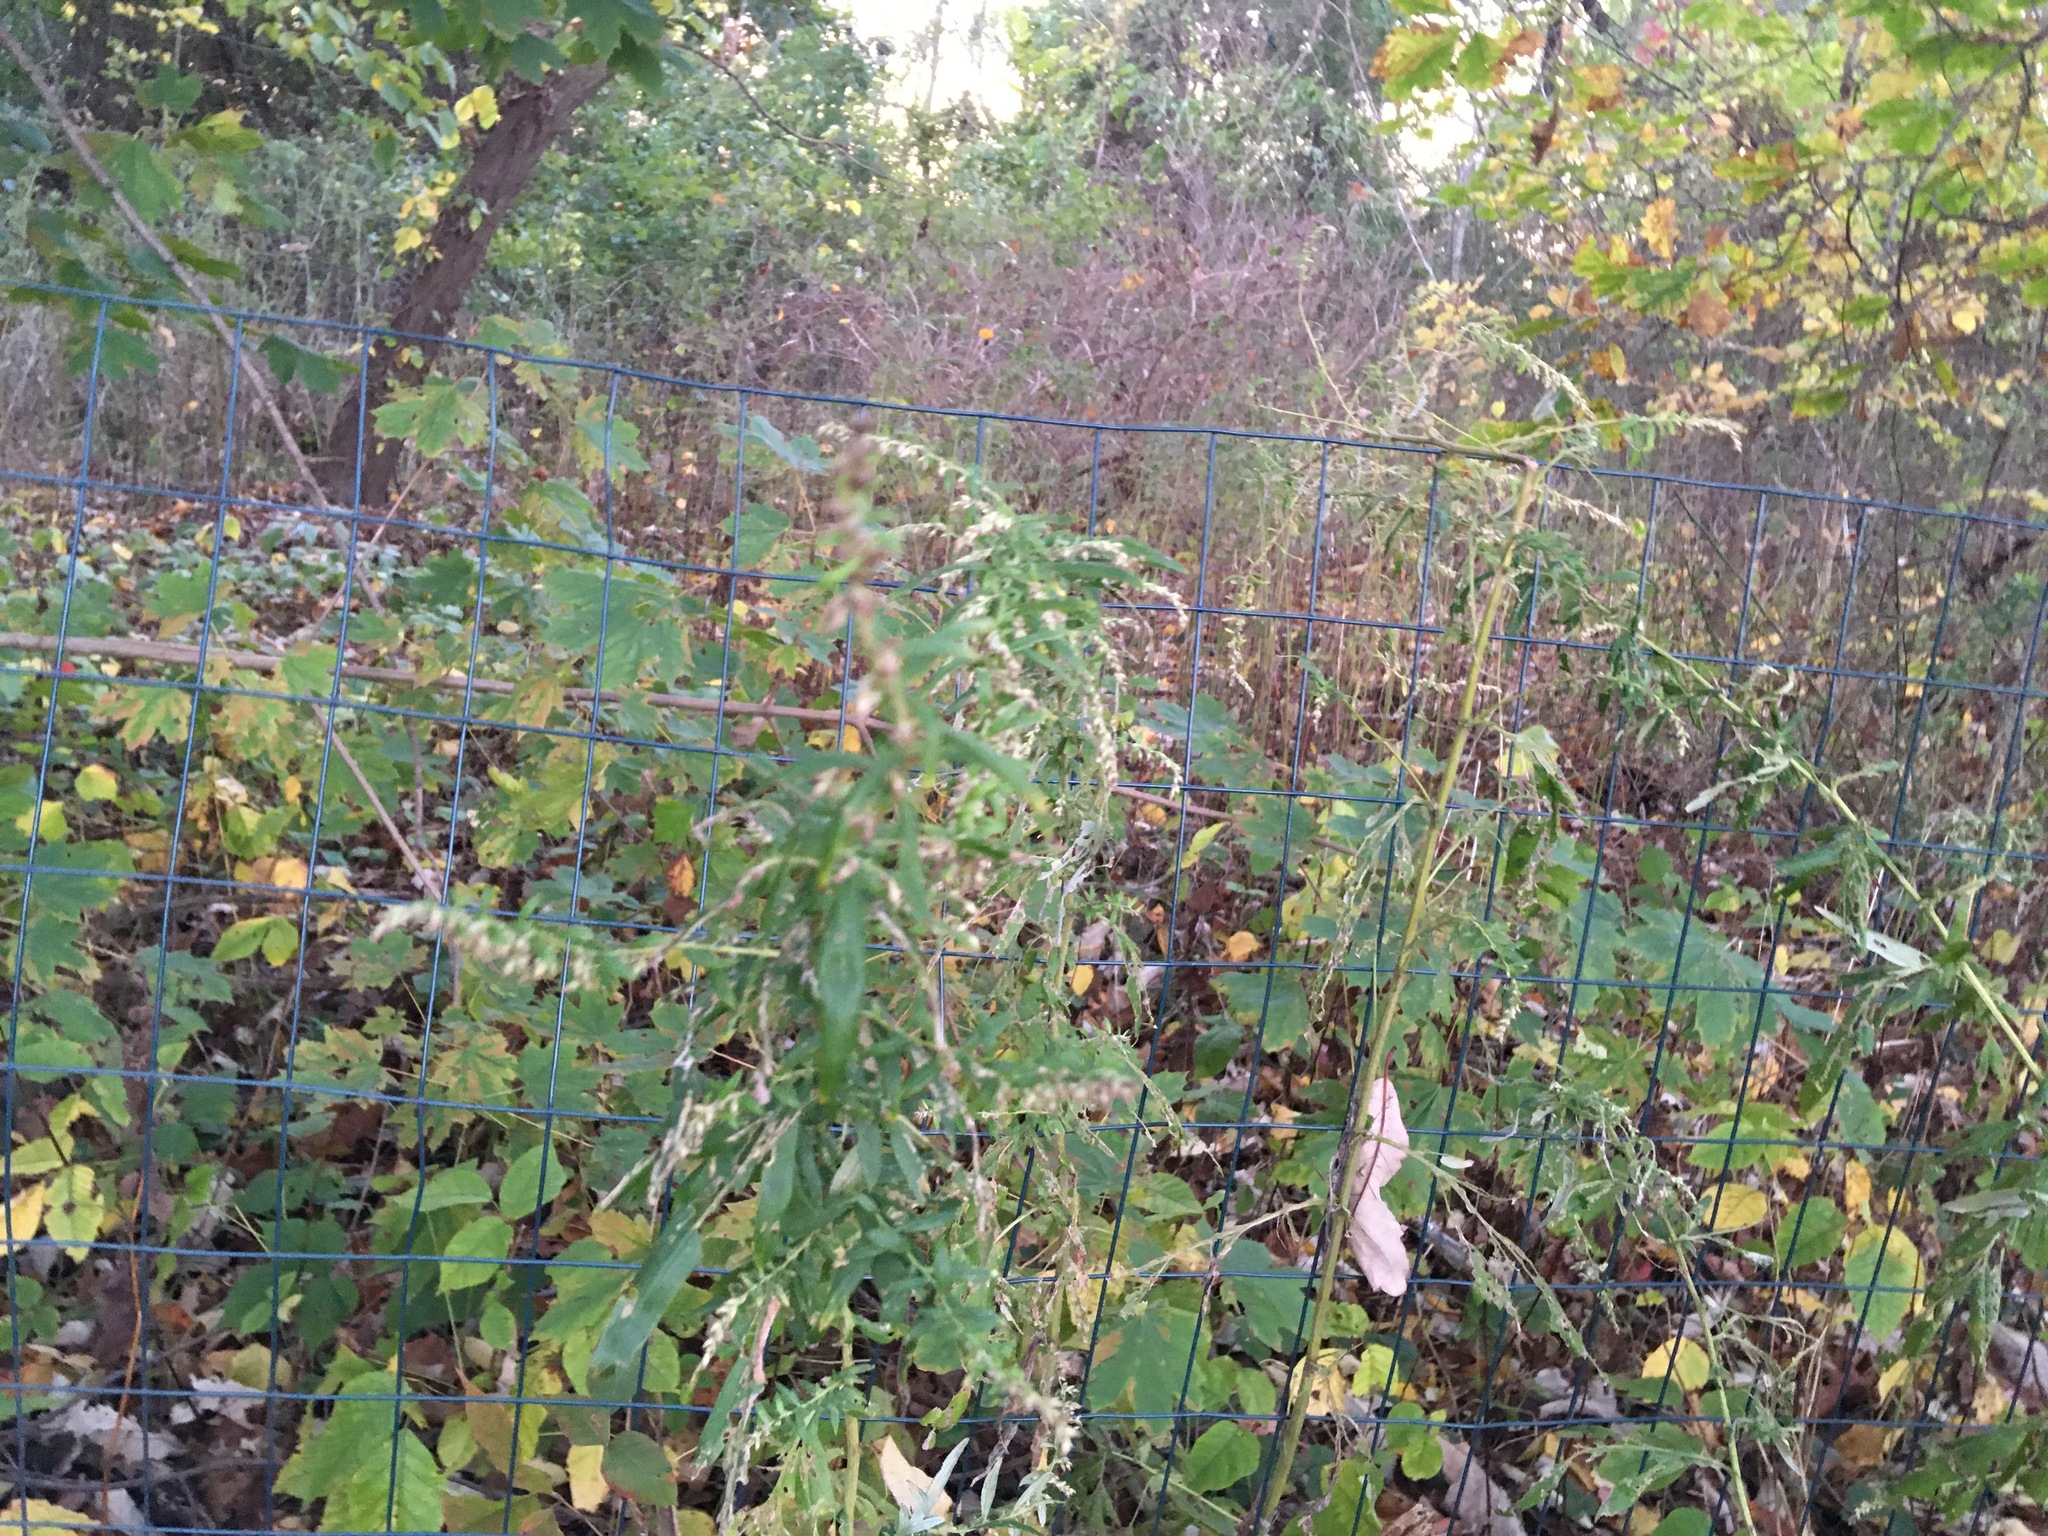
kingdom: Plantae
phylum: Tracheophyta
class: Magnoliopsida
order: Asterales
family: Asteraceae
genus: Artemisia
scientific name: Artemisia vulgaris
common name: Mugwort
